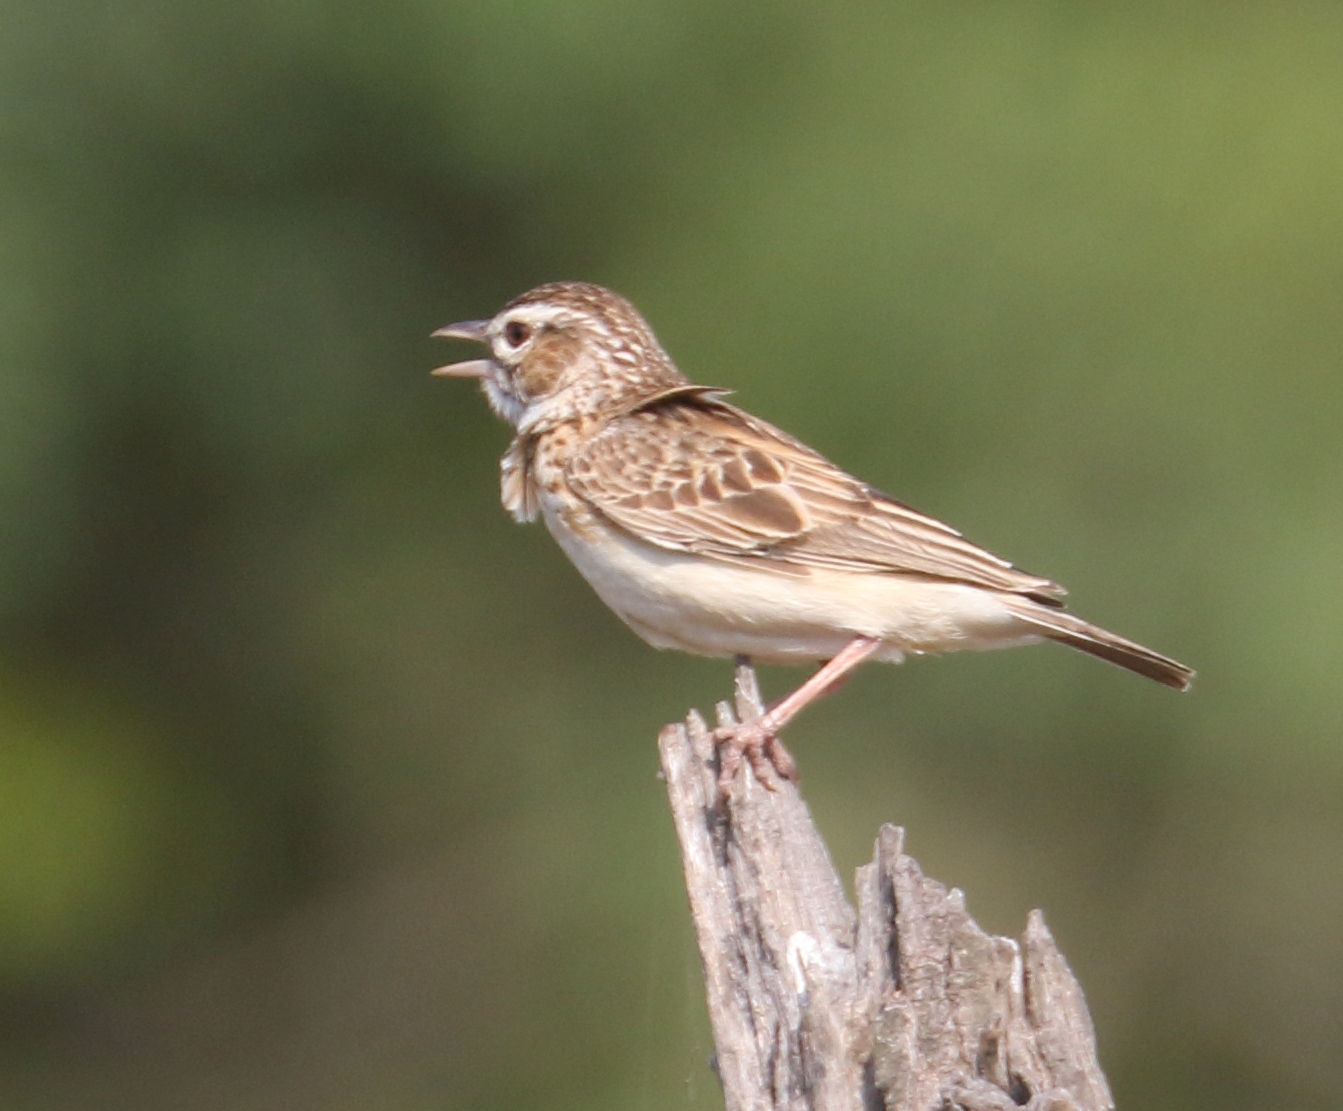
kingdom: Animalia
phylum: Chordata
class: Aves
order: Passeriformes
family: Alaudidae
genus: Calendulauda
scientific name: Calendulauda sabota
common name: Sabota lark
